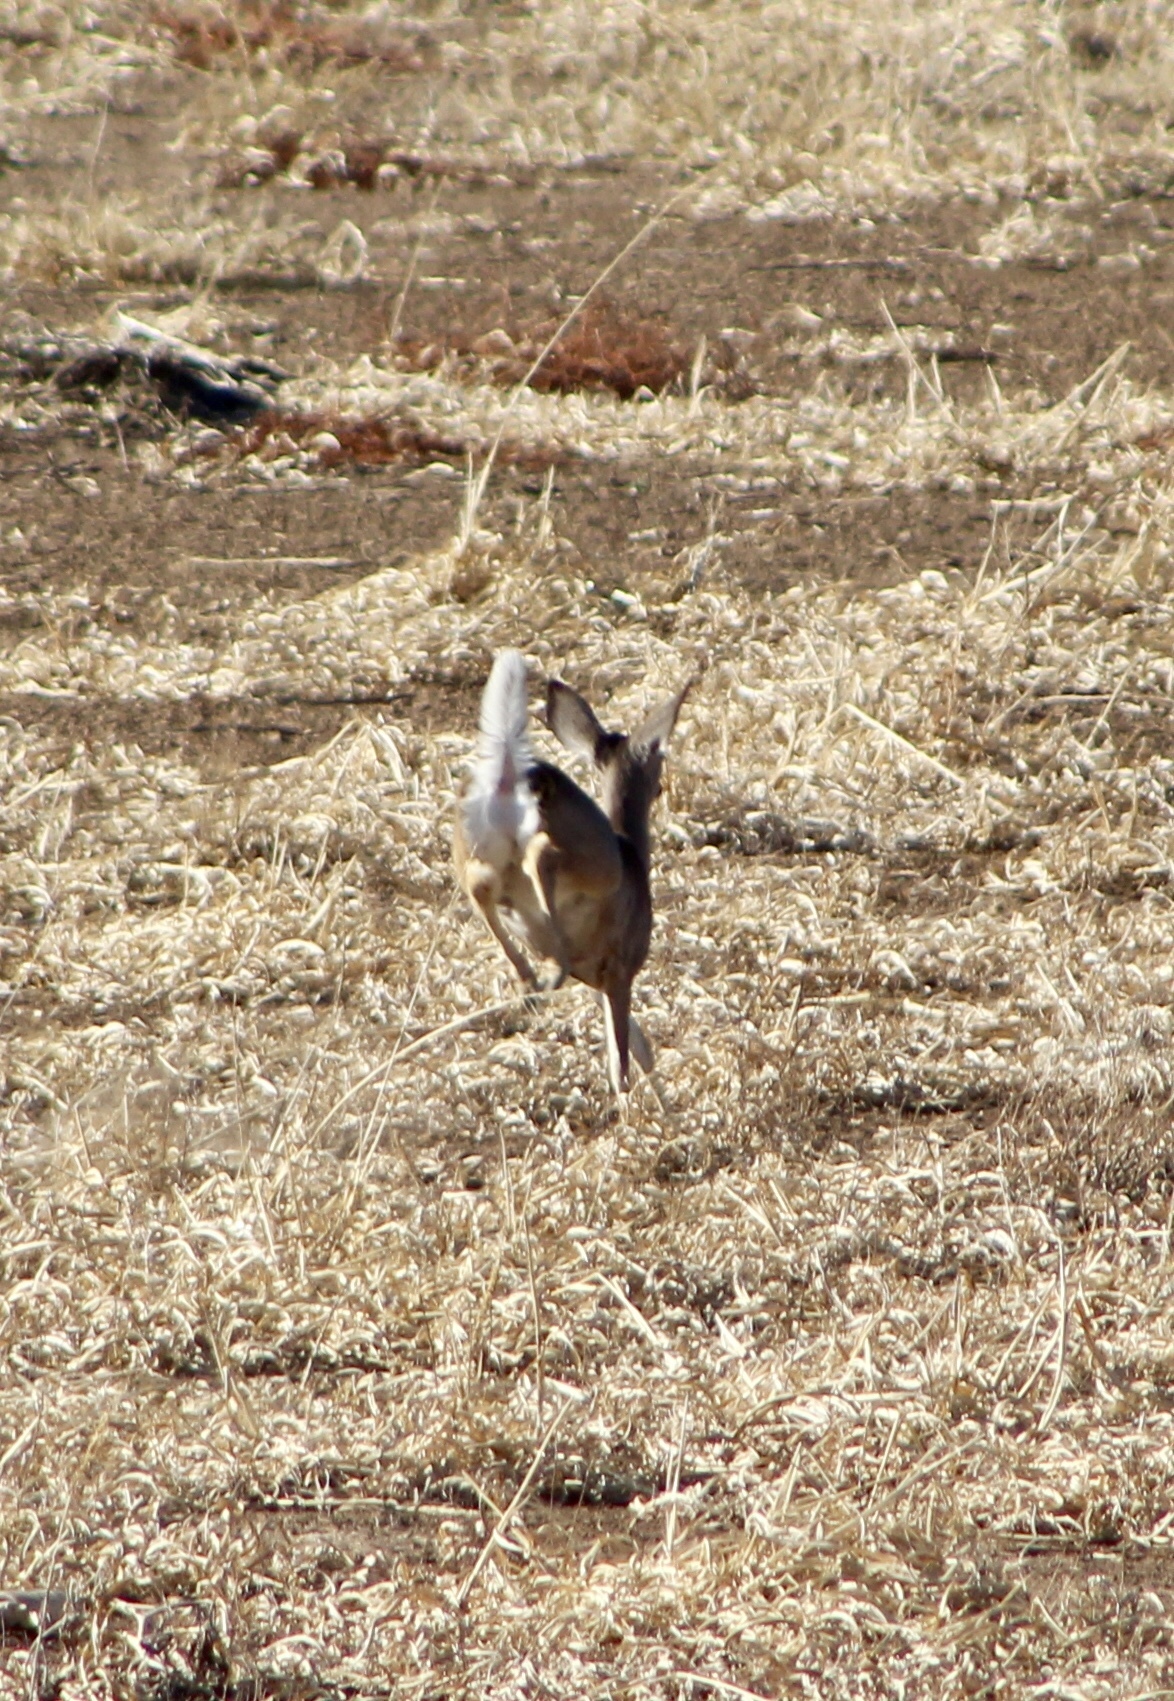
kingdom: Animalia
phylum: Chordata
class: Mammalia
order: Artiodactyla
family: Cervidae
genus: Odocoileus
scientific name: Odocoileus virginianus
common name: White-tailed deer
